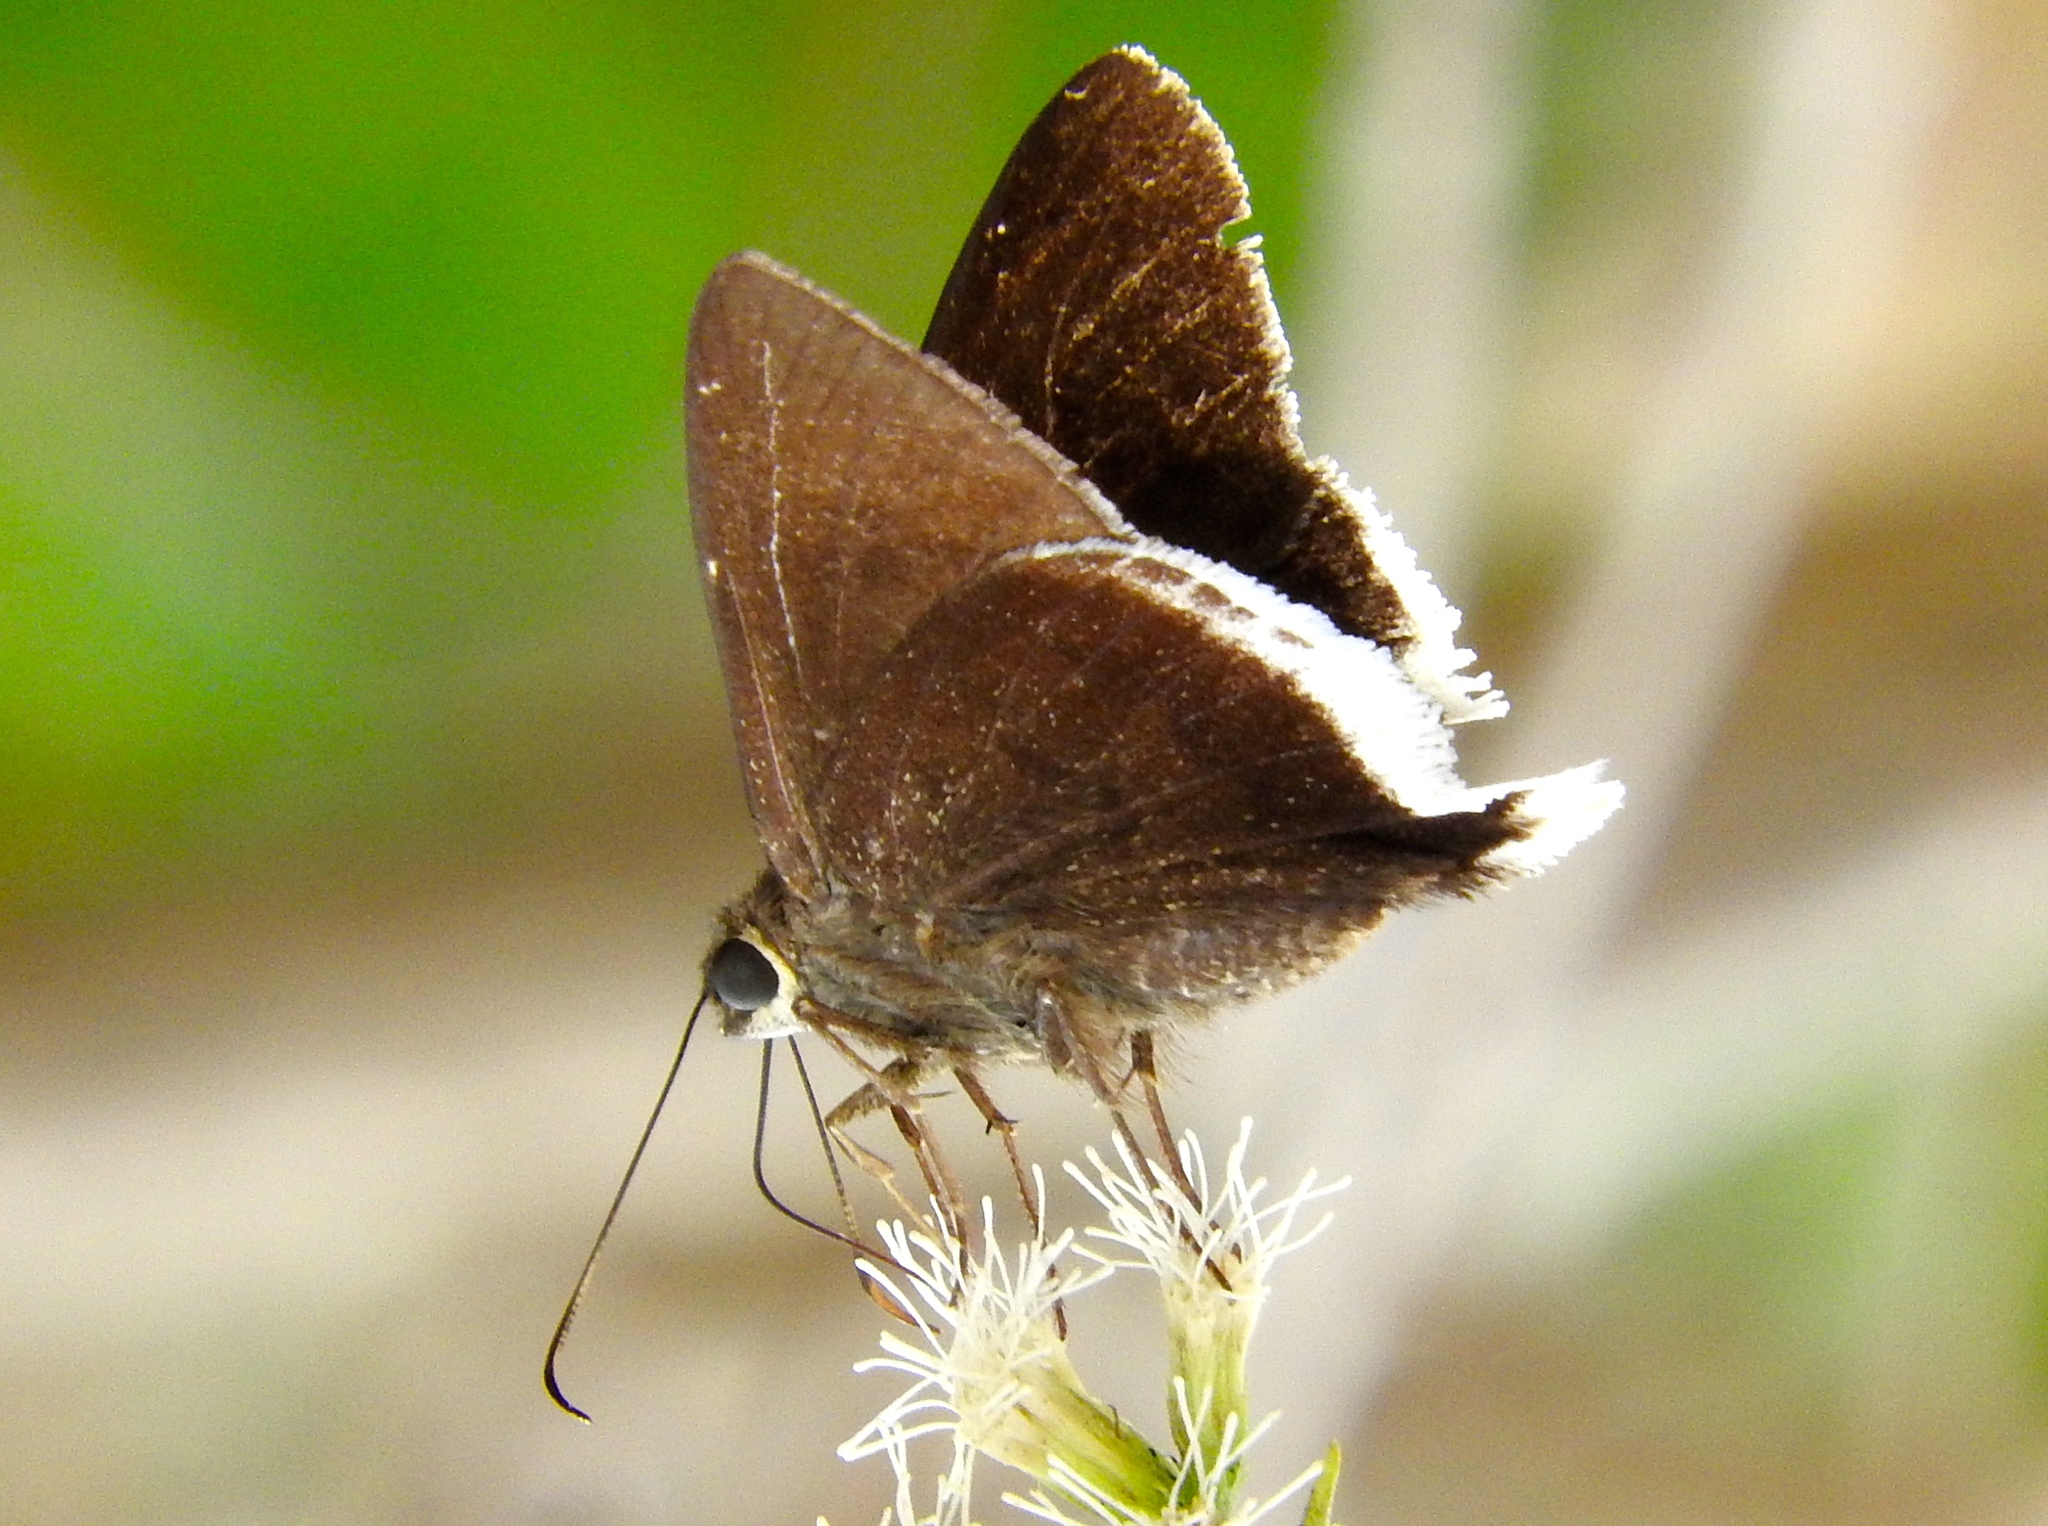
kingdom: Animalia
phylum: Arthropoda
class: Insecta
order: Lepidoptera
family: Hesperiidae
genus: Achalarus
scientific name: Achalarus
